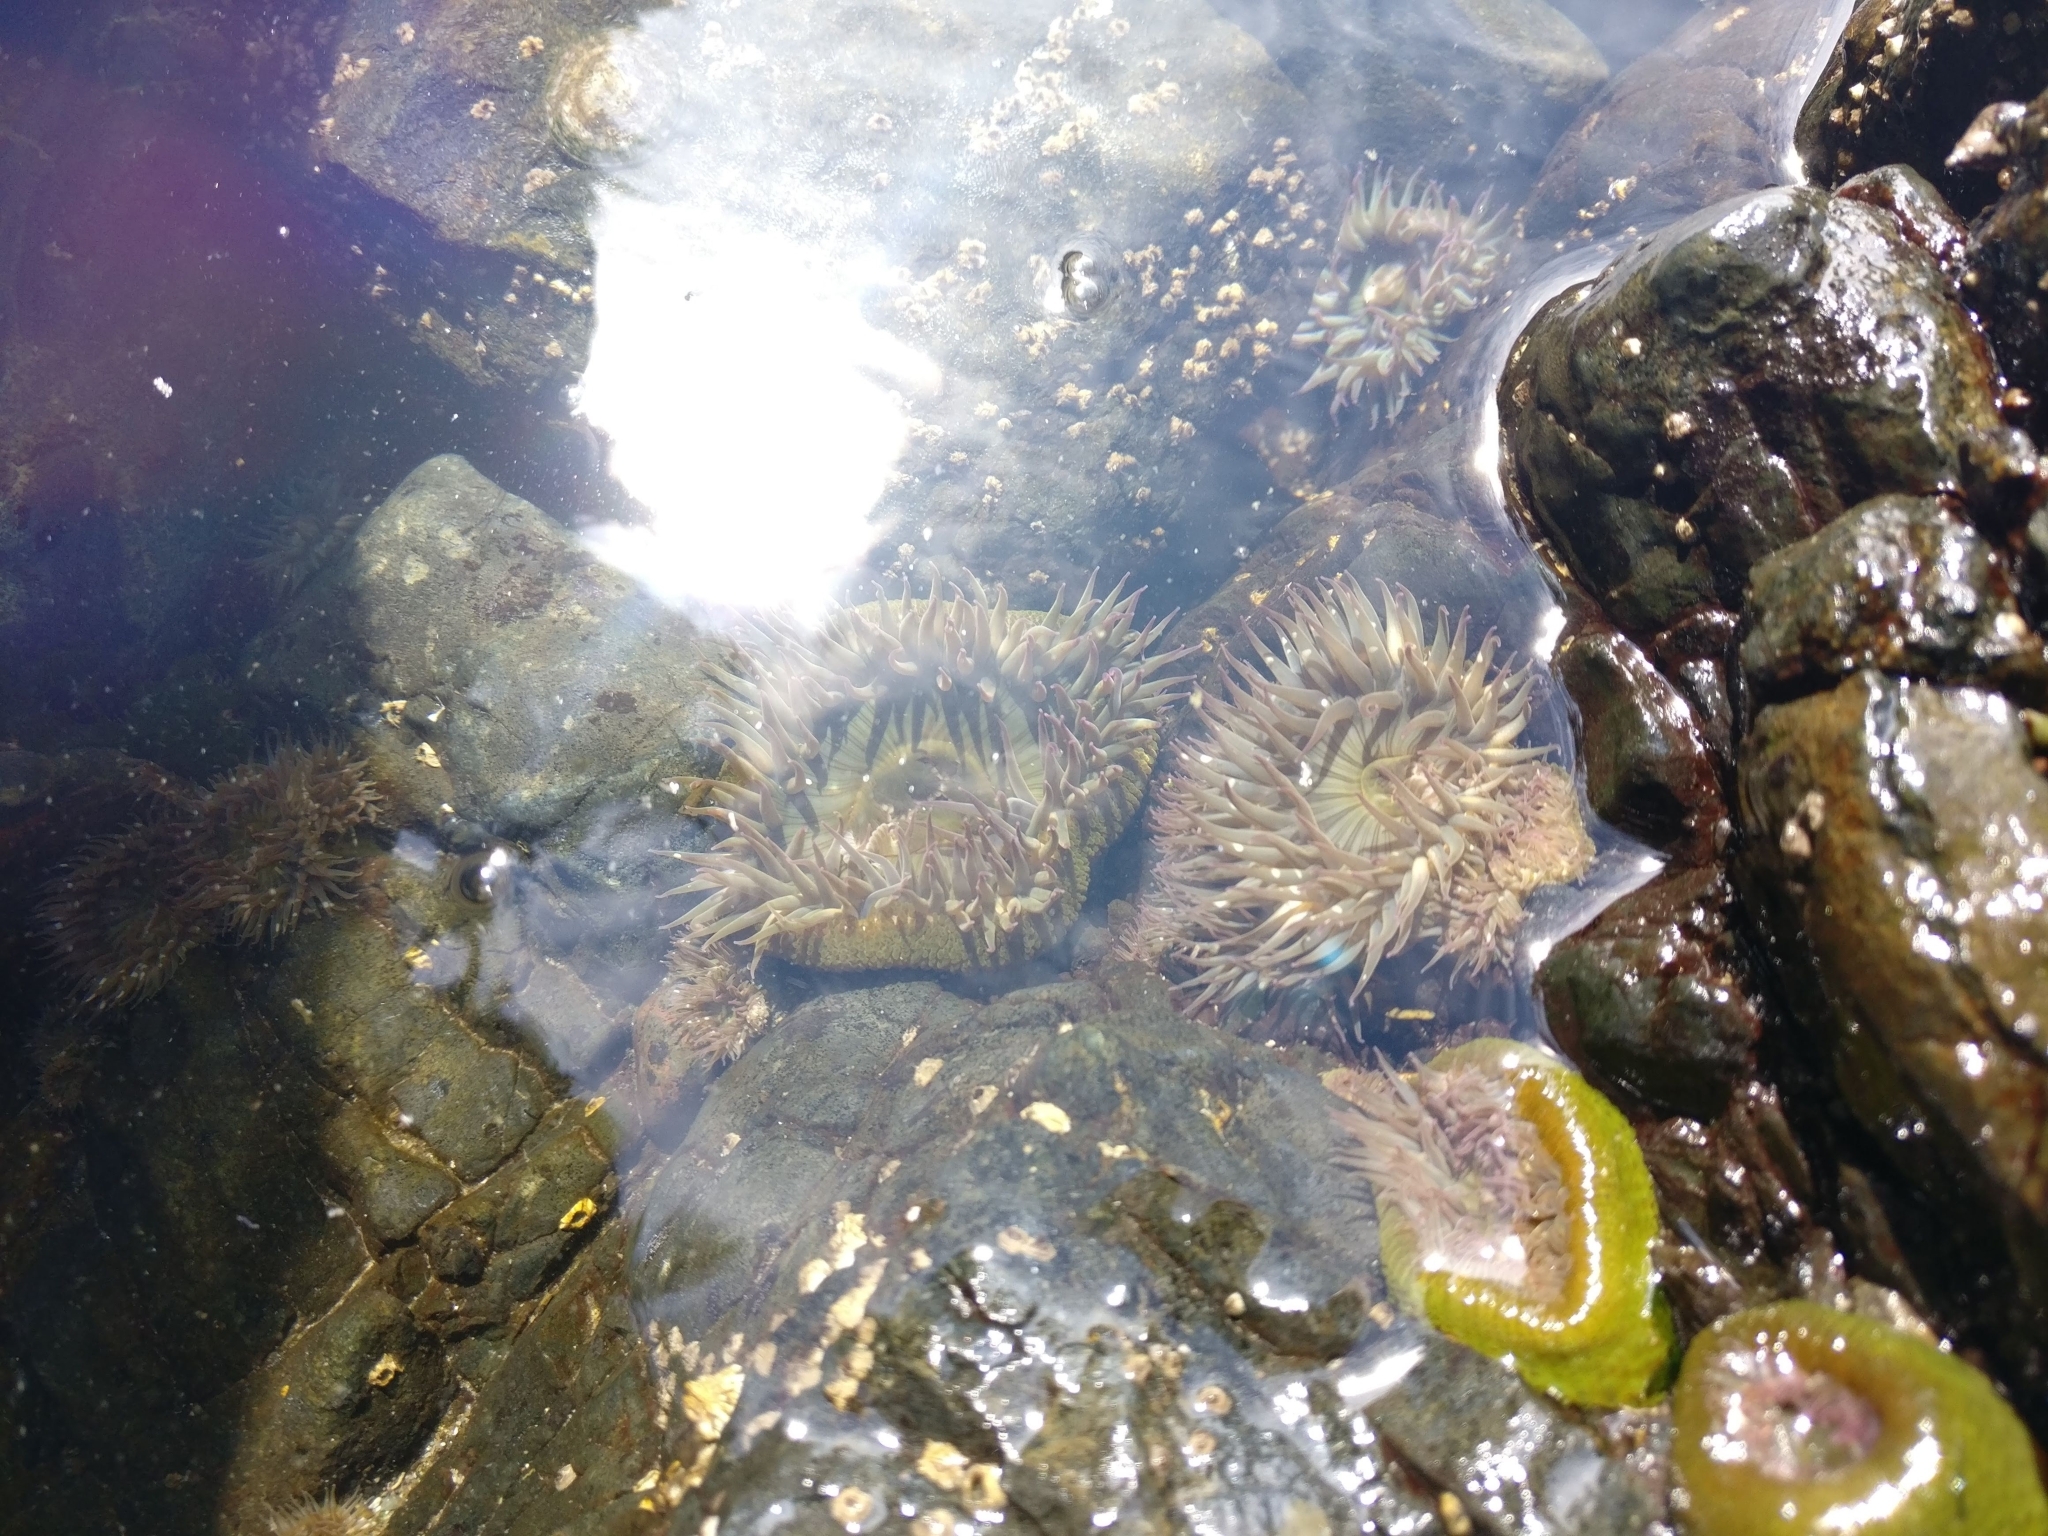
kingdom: Animalia
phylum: Cnidaria
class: Anthozoa
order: Actiniaria
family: Actiniidae
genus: Anthopleura
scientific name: Anthopleura elegantissima
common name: Clonal anemone
